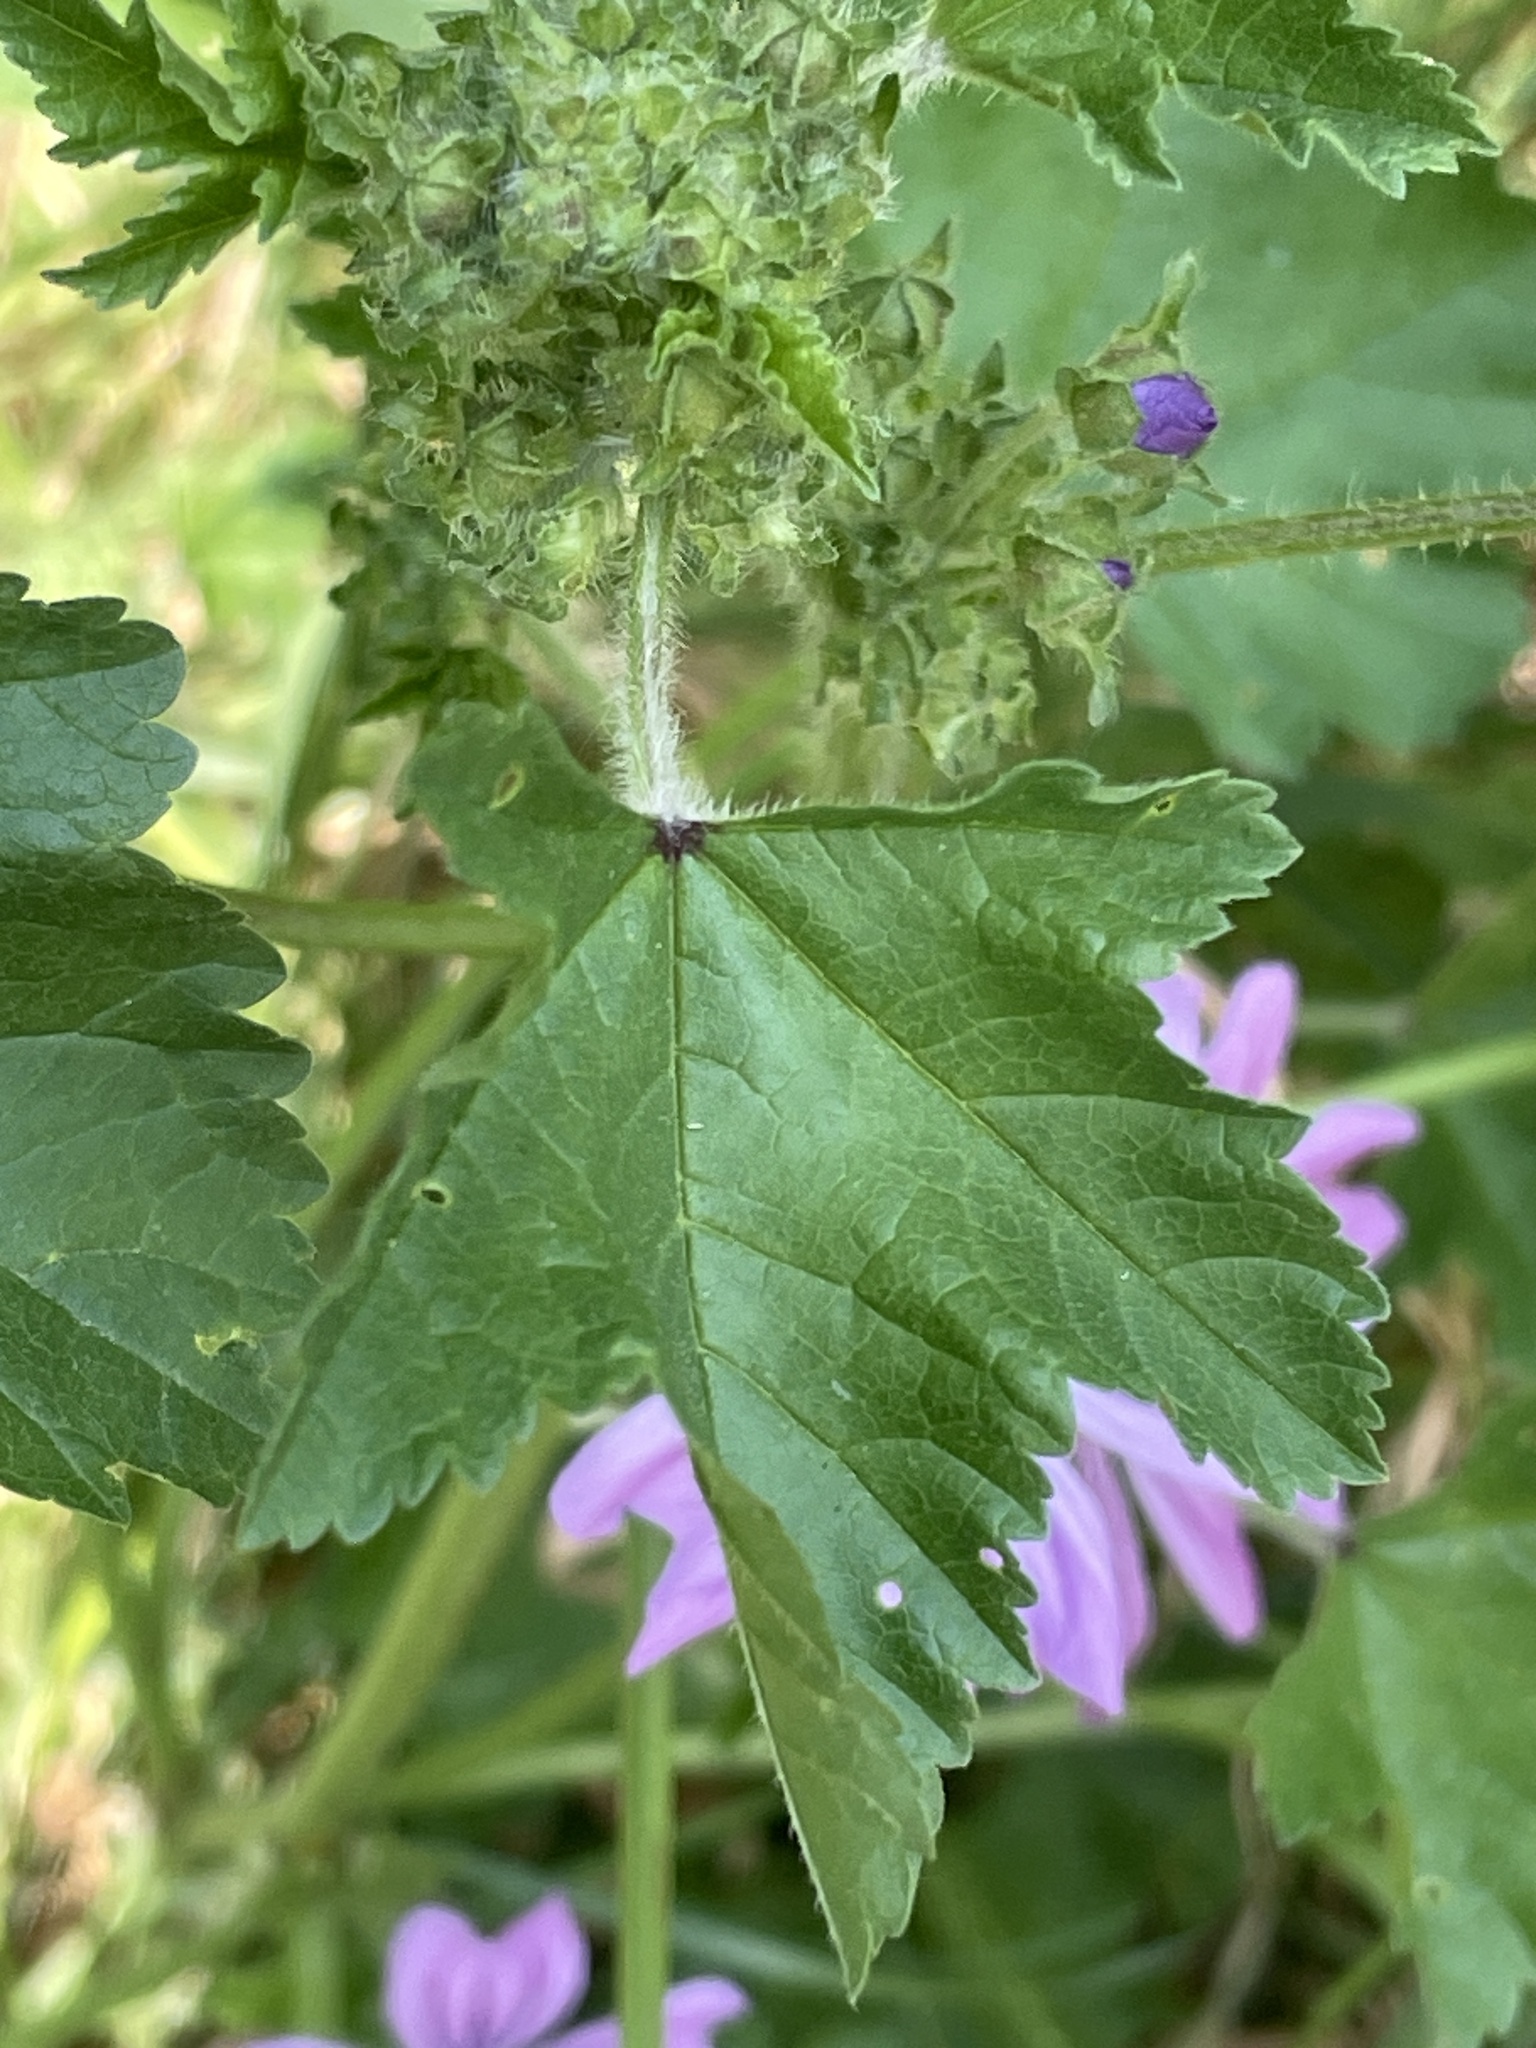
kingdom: Plantae
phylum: Tracheophyta
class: Magnoliopsida
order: Malvales
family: Malvaceae
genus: Malva
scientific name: Malva sylvestris
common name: Common mallow
